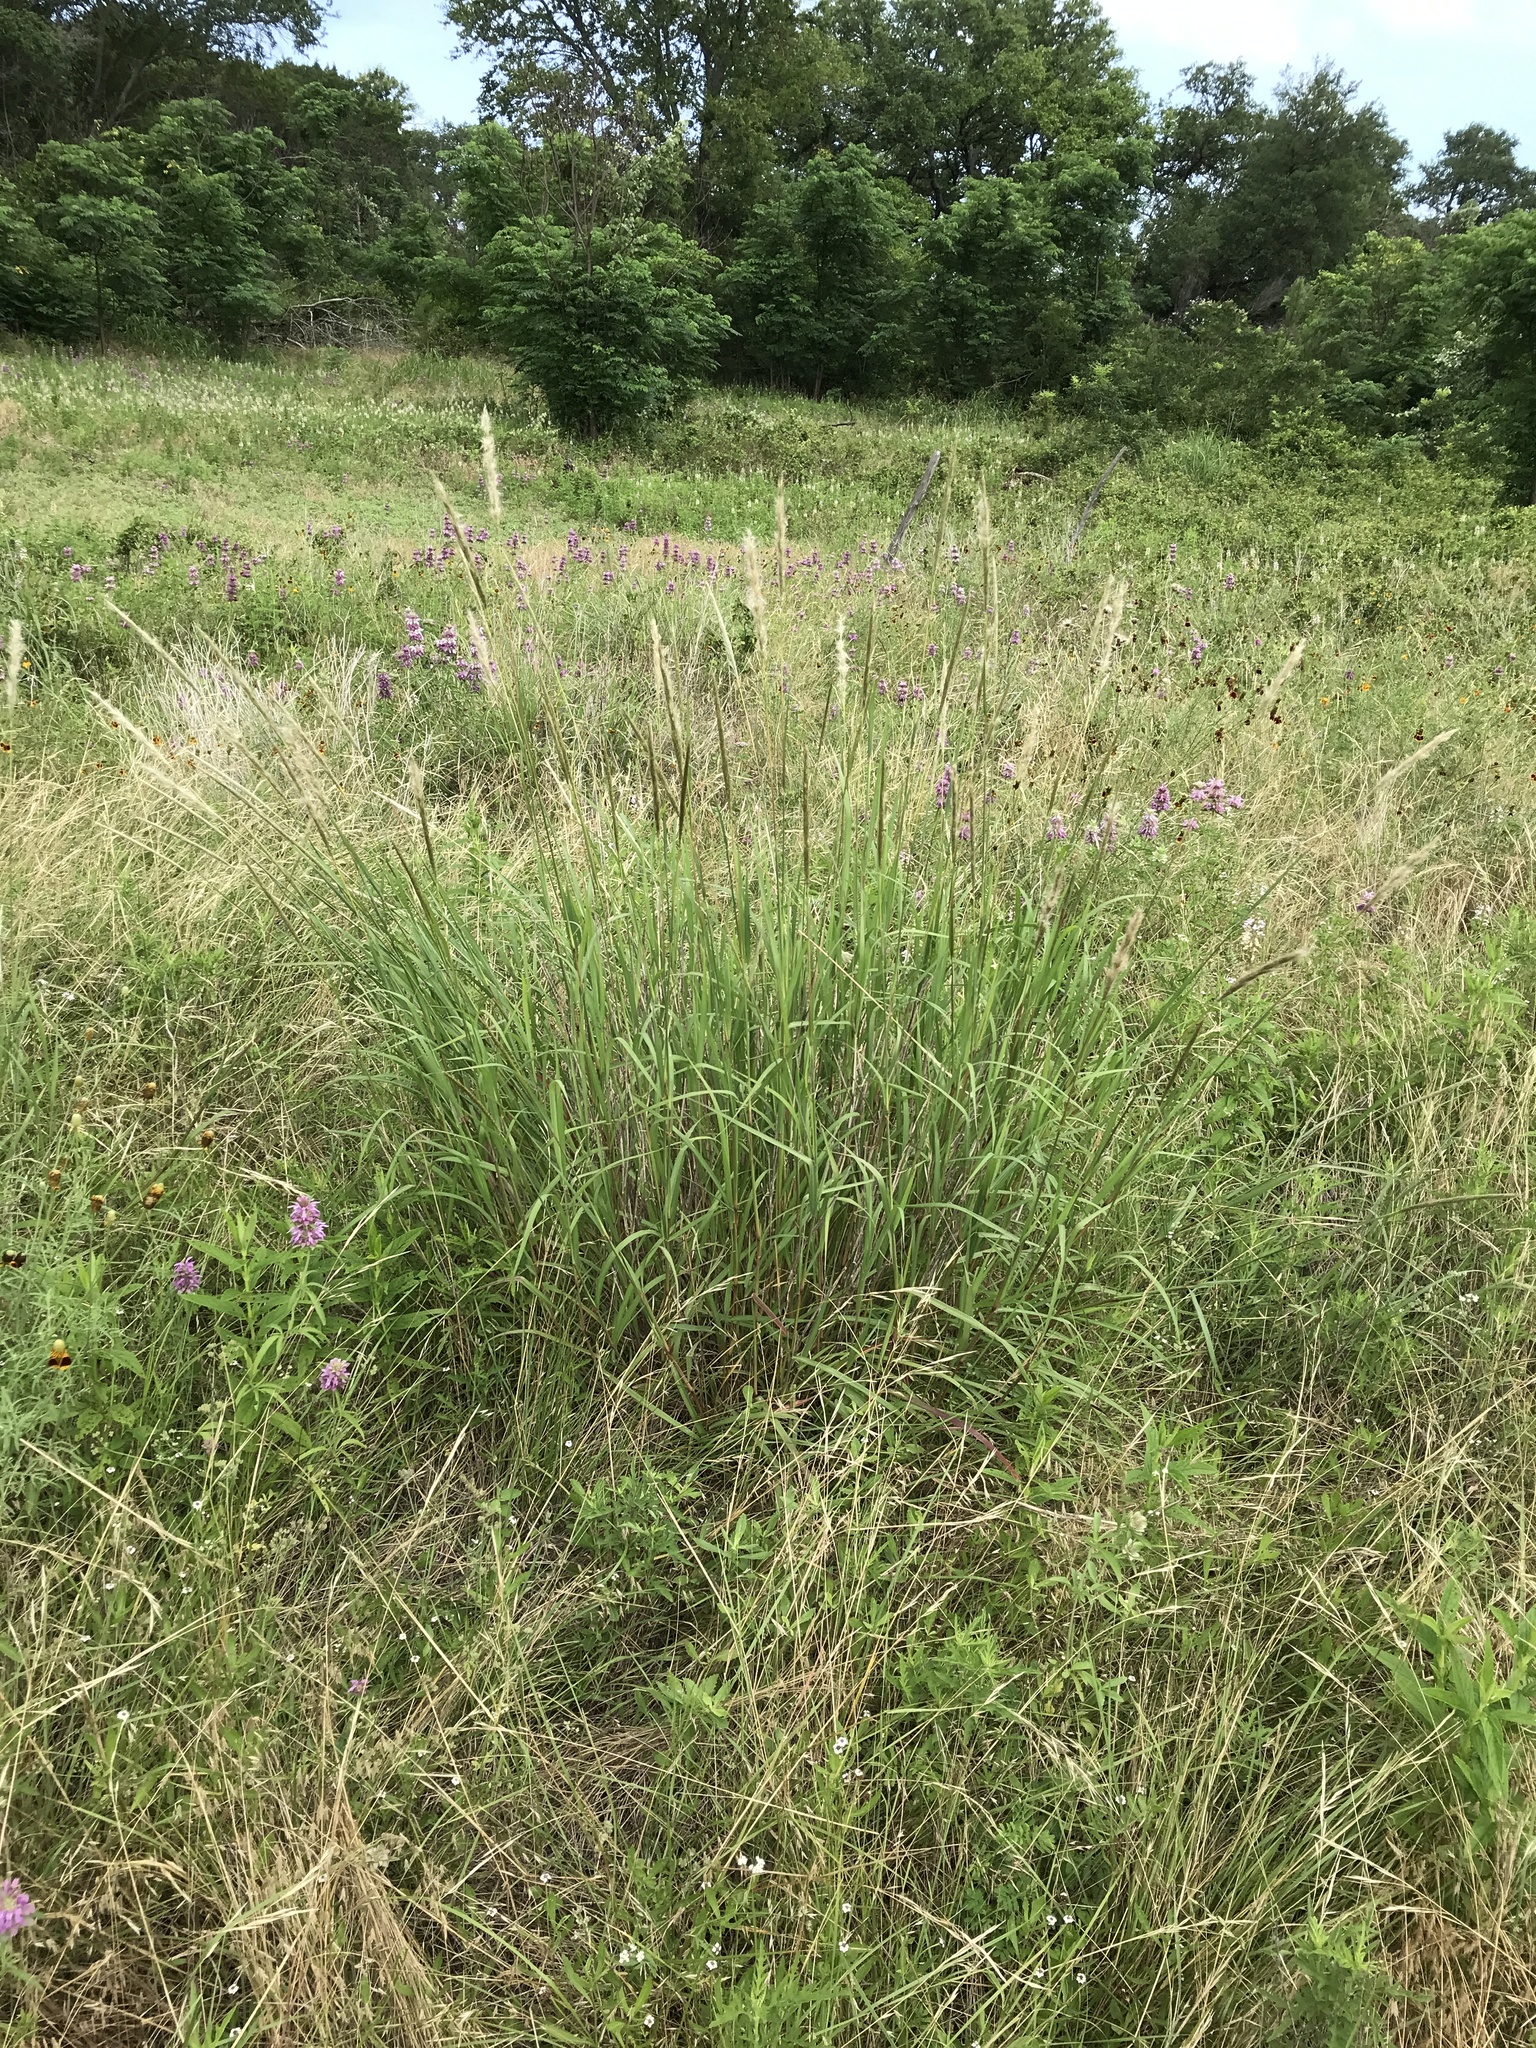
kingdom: Plantae
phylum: Tracheophyta
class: Liliopsida
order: Poales
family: Poaceae
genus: Bothriochloa
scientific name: Bothriochloa torreyana
